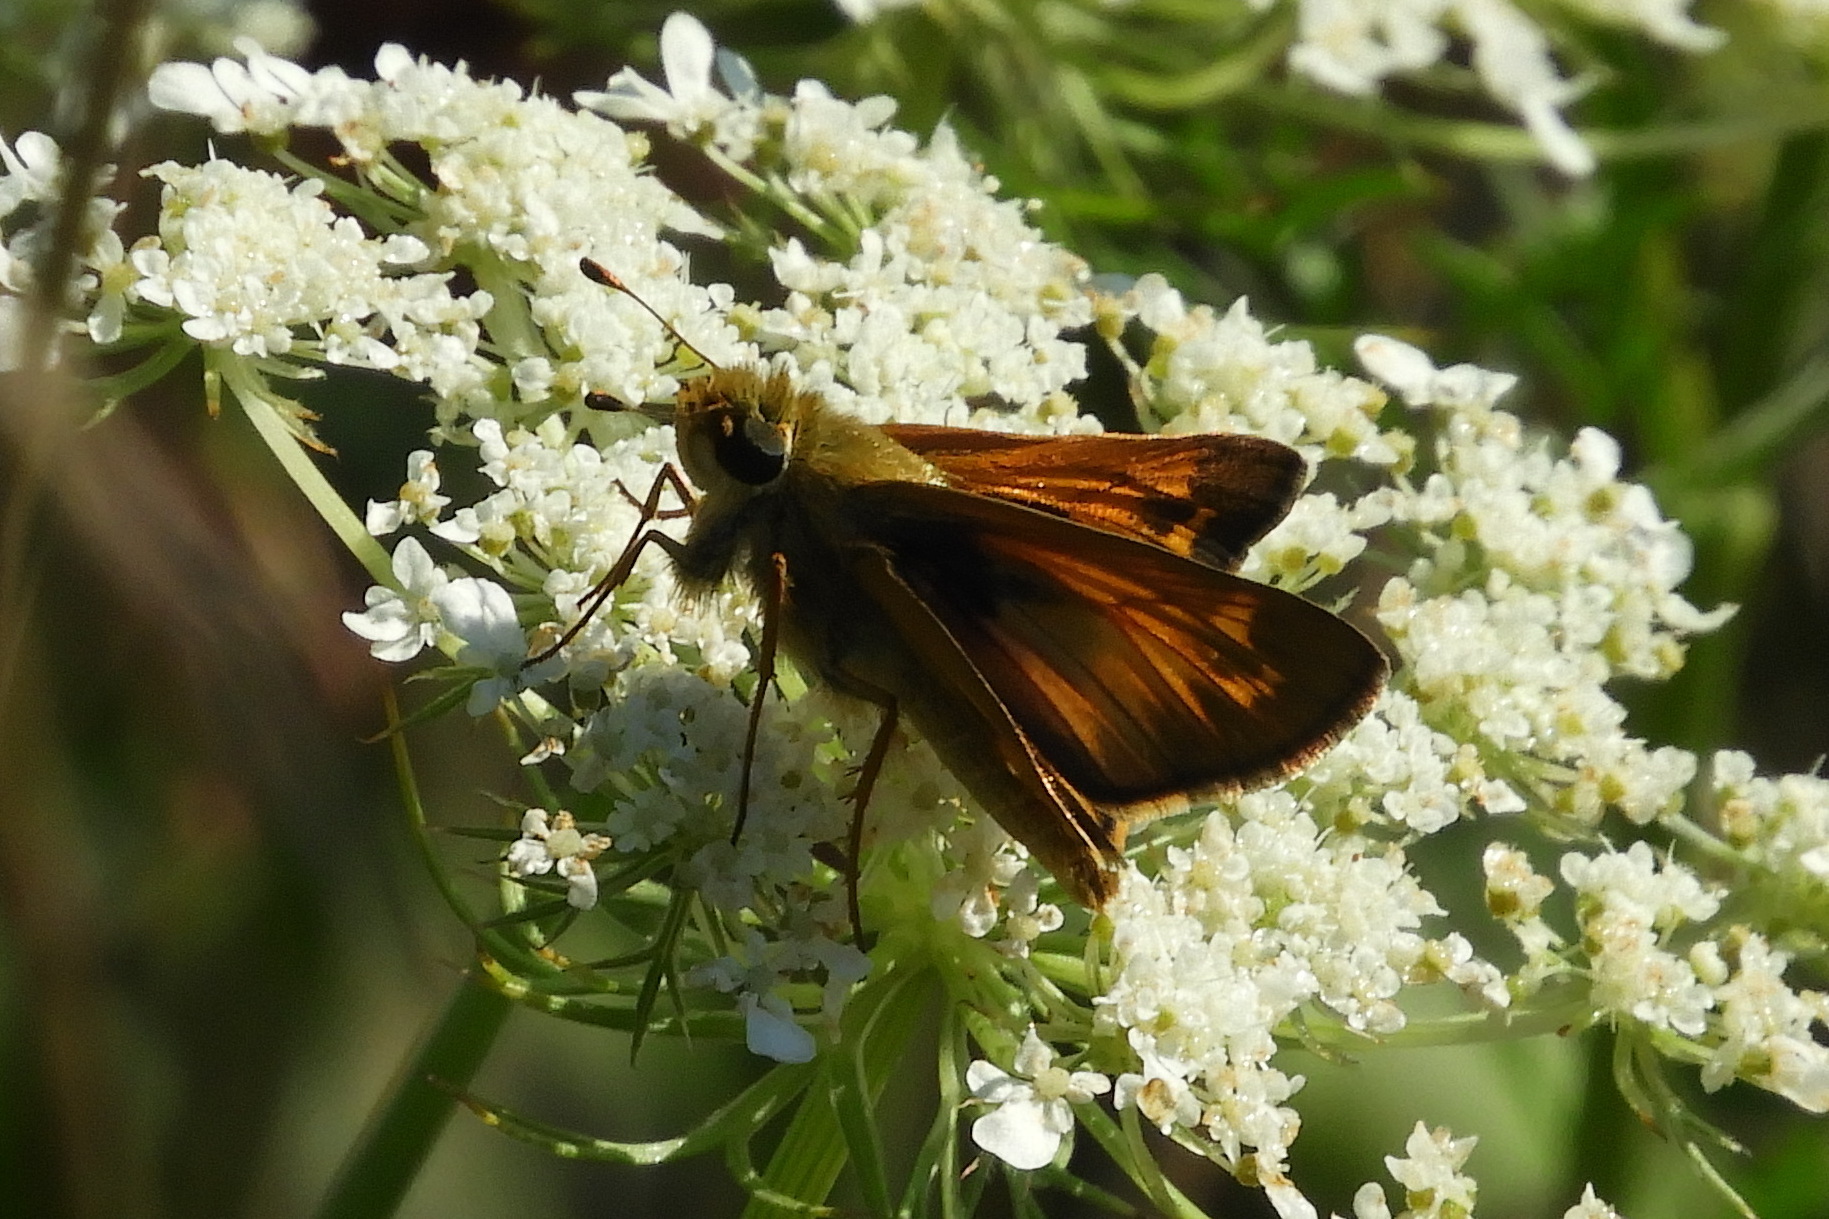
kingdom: Animalia
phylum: Arthropoda
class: Insecta
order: Lepidoptera
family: Hesperiidae
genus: Atalopedes
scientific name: Atalopedes
